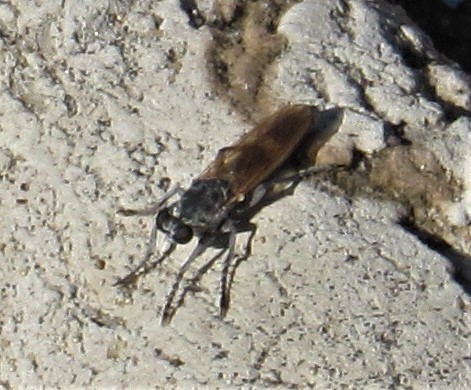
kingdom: Animalia
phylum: Arthropoda
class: Insecta
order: Diptera
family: Asilidae
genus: Stichopogon
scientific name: Stichopogon trifasciatus
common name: Three-banded robber fly
